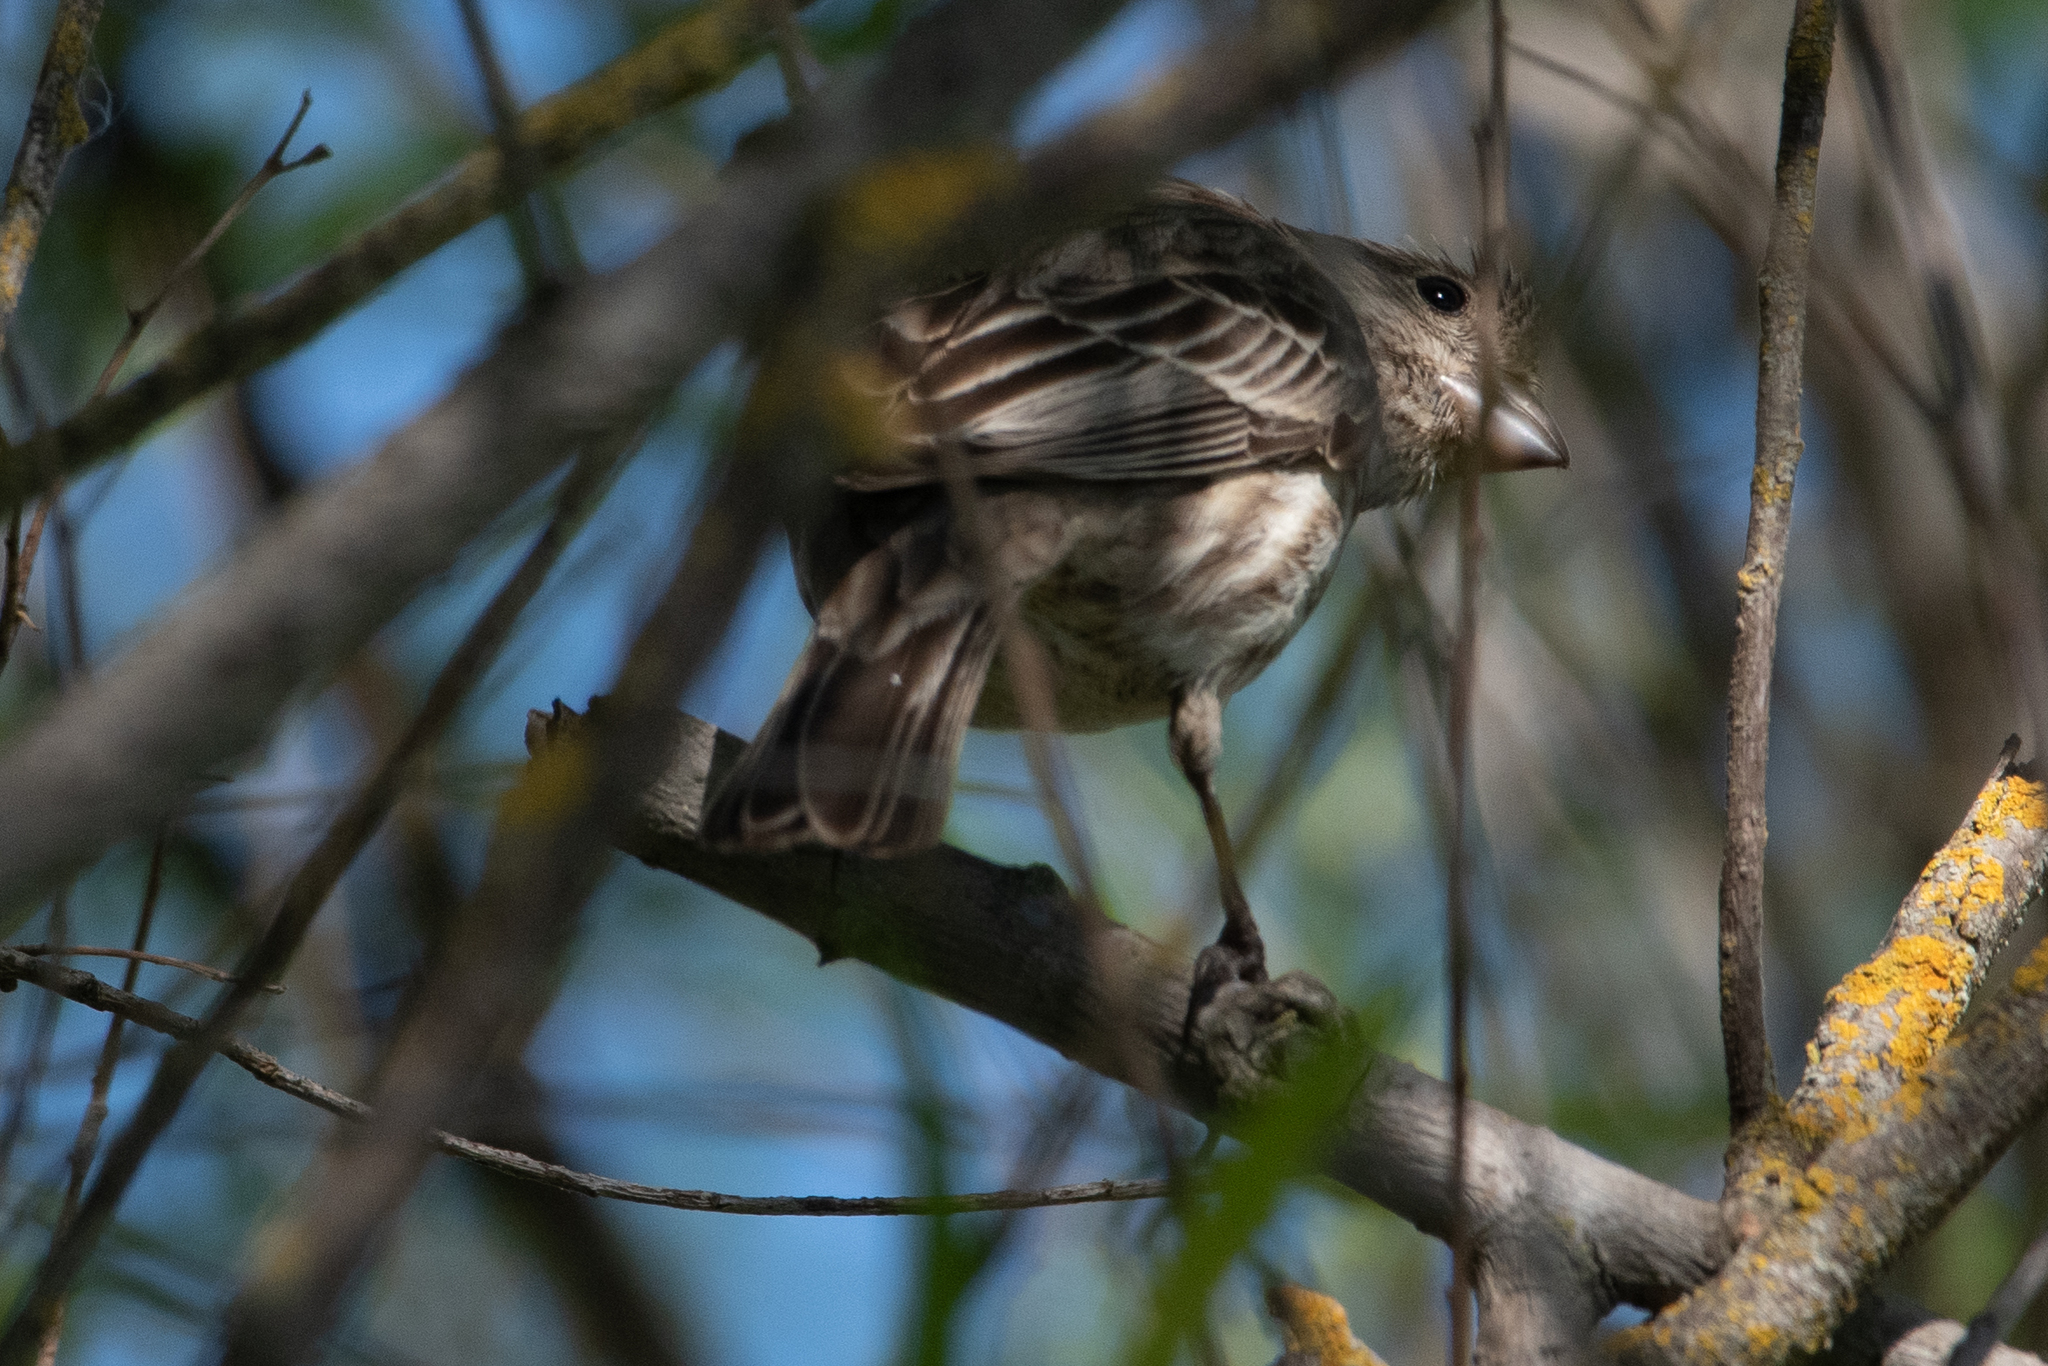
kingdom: Animalia
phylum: Chordata
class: Aves
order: Passeriformes
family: Fringillidae
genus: Haemorhous
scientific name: Haemorhous mexicanus
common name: House finch
